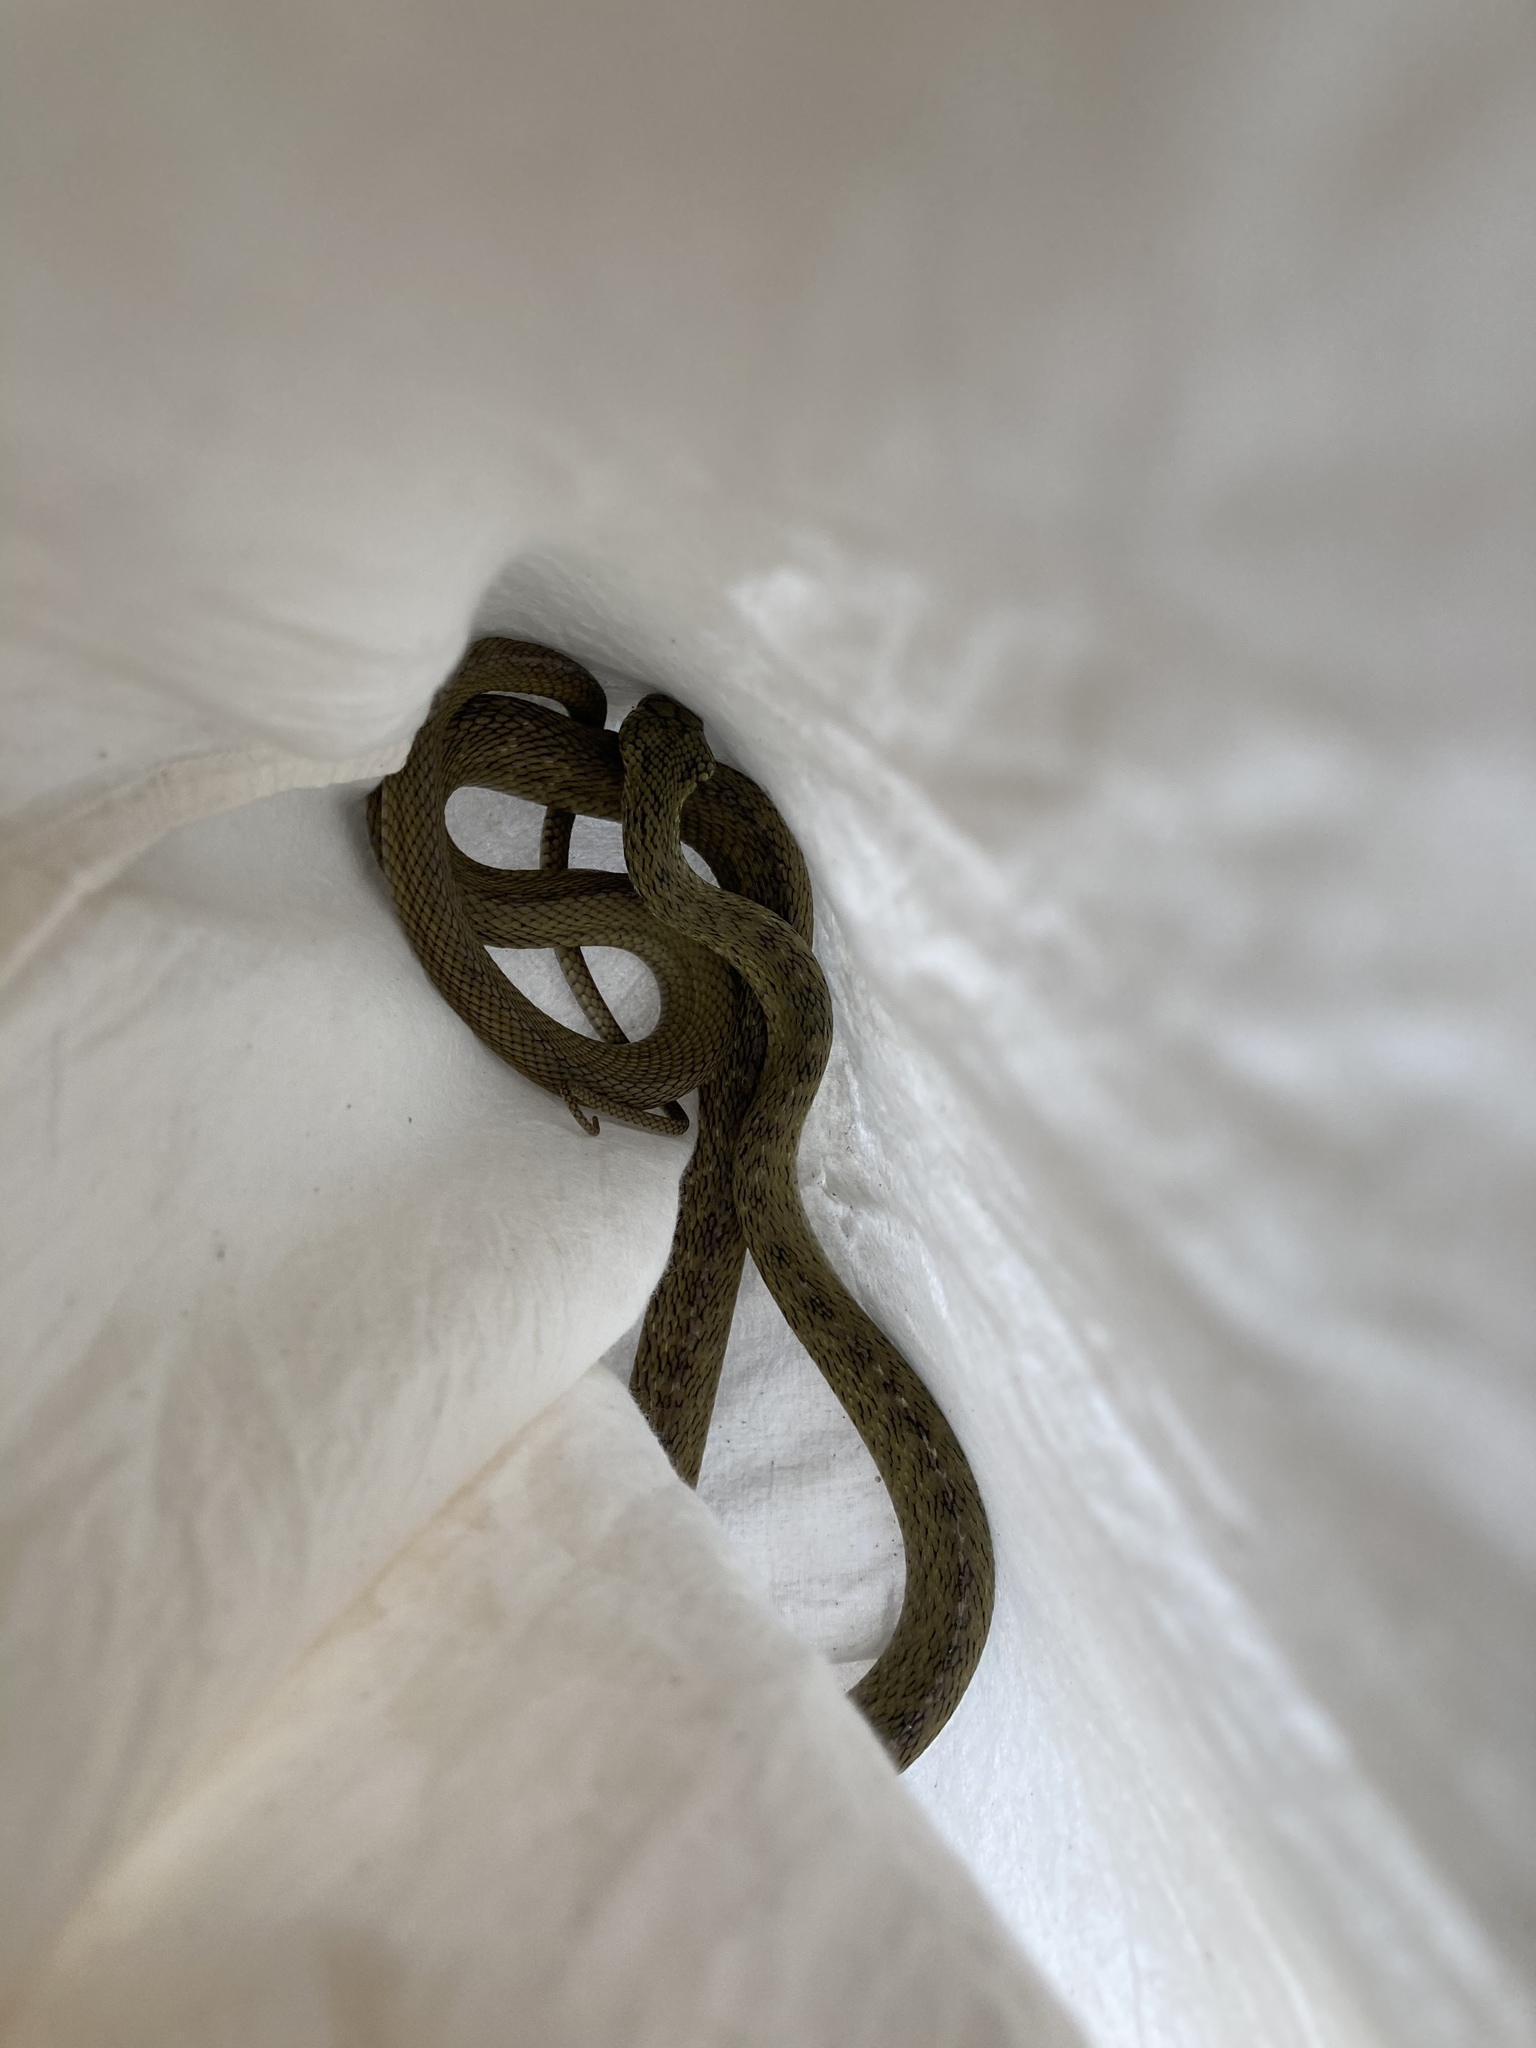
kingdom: Animalia
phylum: Chordata
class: Squamata
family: Colubridae
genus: Elaphe
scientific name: Elaphe carinata
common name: Taiwan stink snake
